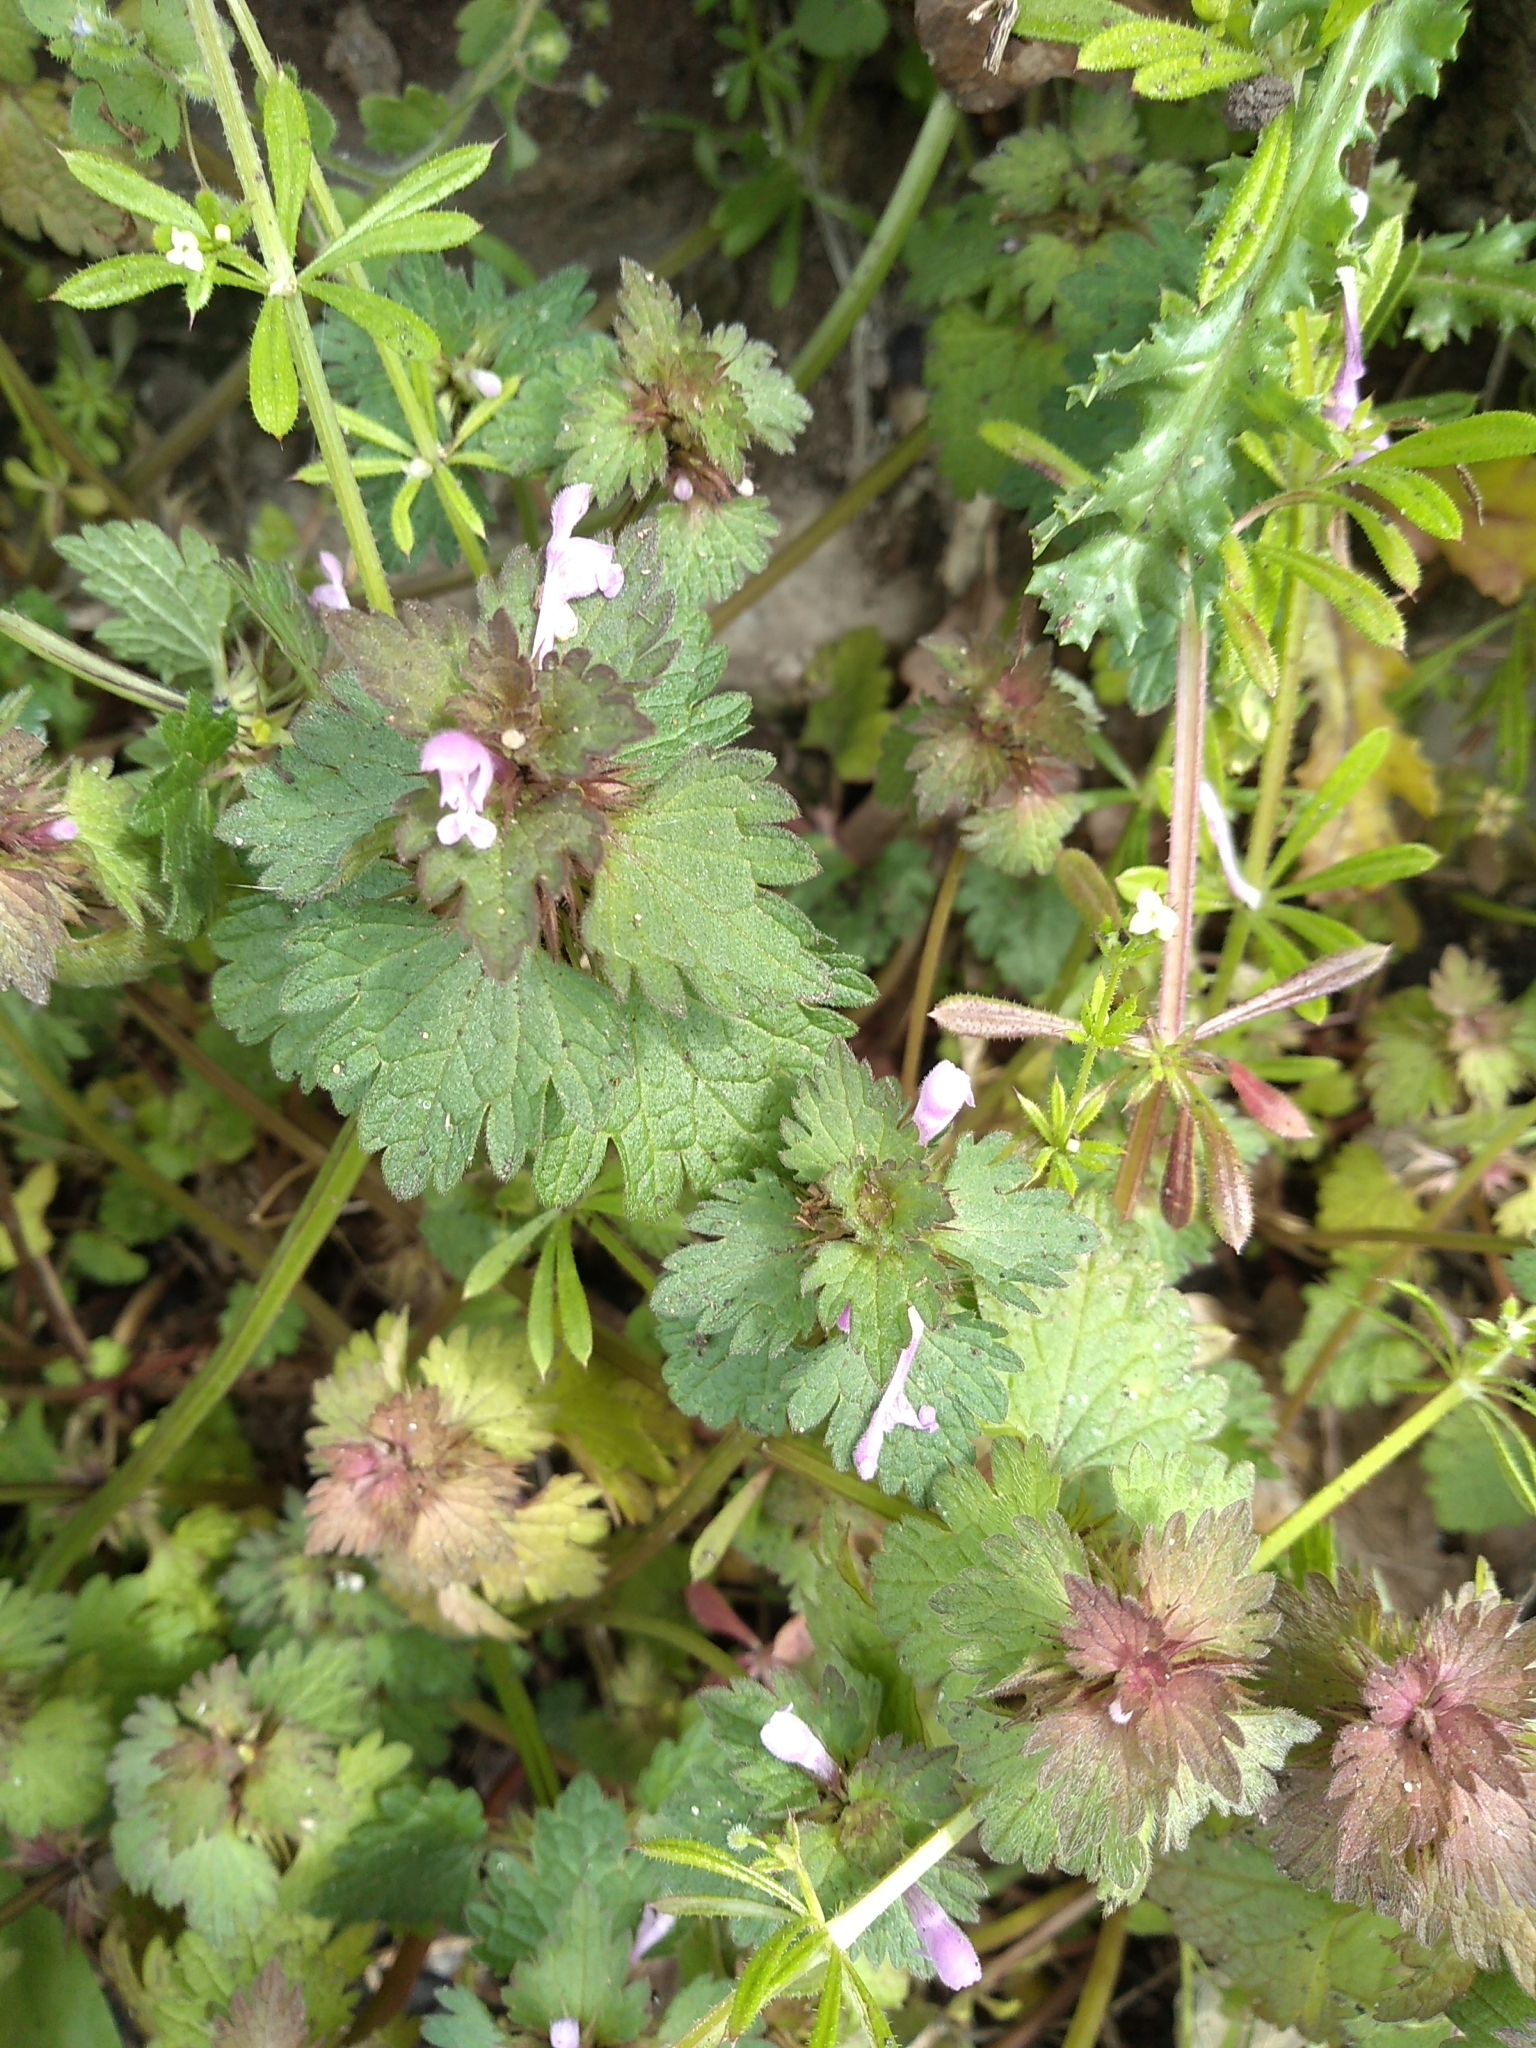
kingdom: Plantae
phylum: Tracheophyta
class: Magnoliopsida
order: Lamiales
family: Lamiaceae
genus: Lamium
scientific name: Lamium hybridum
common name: Cut-leaved dead-nettle
